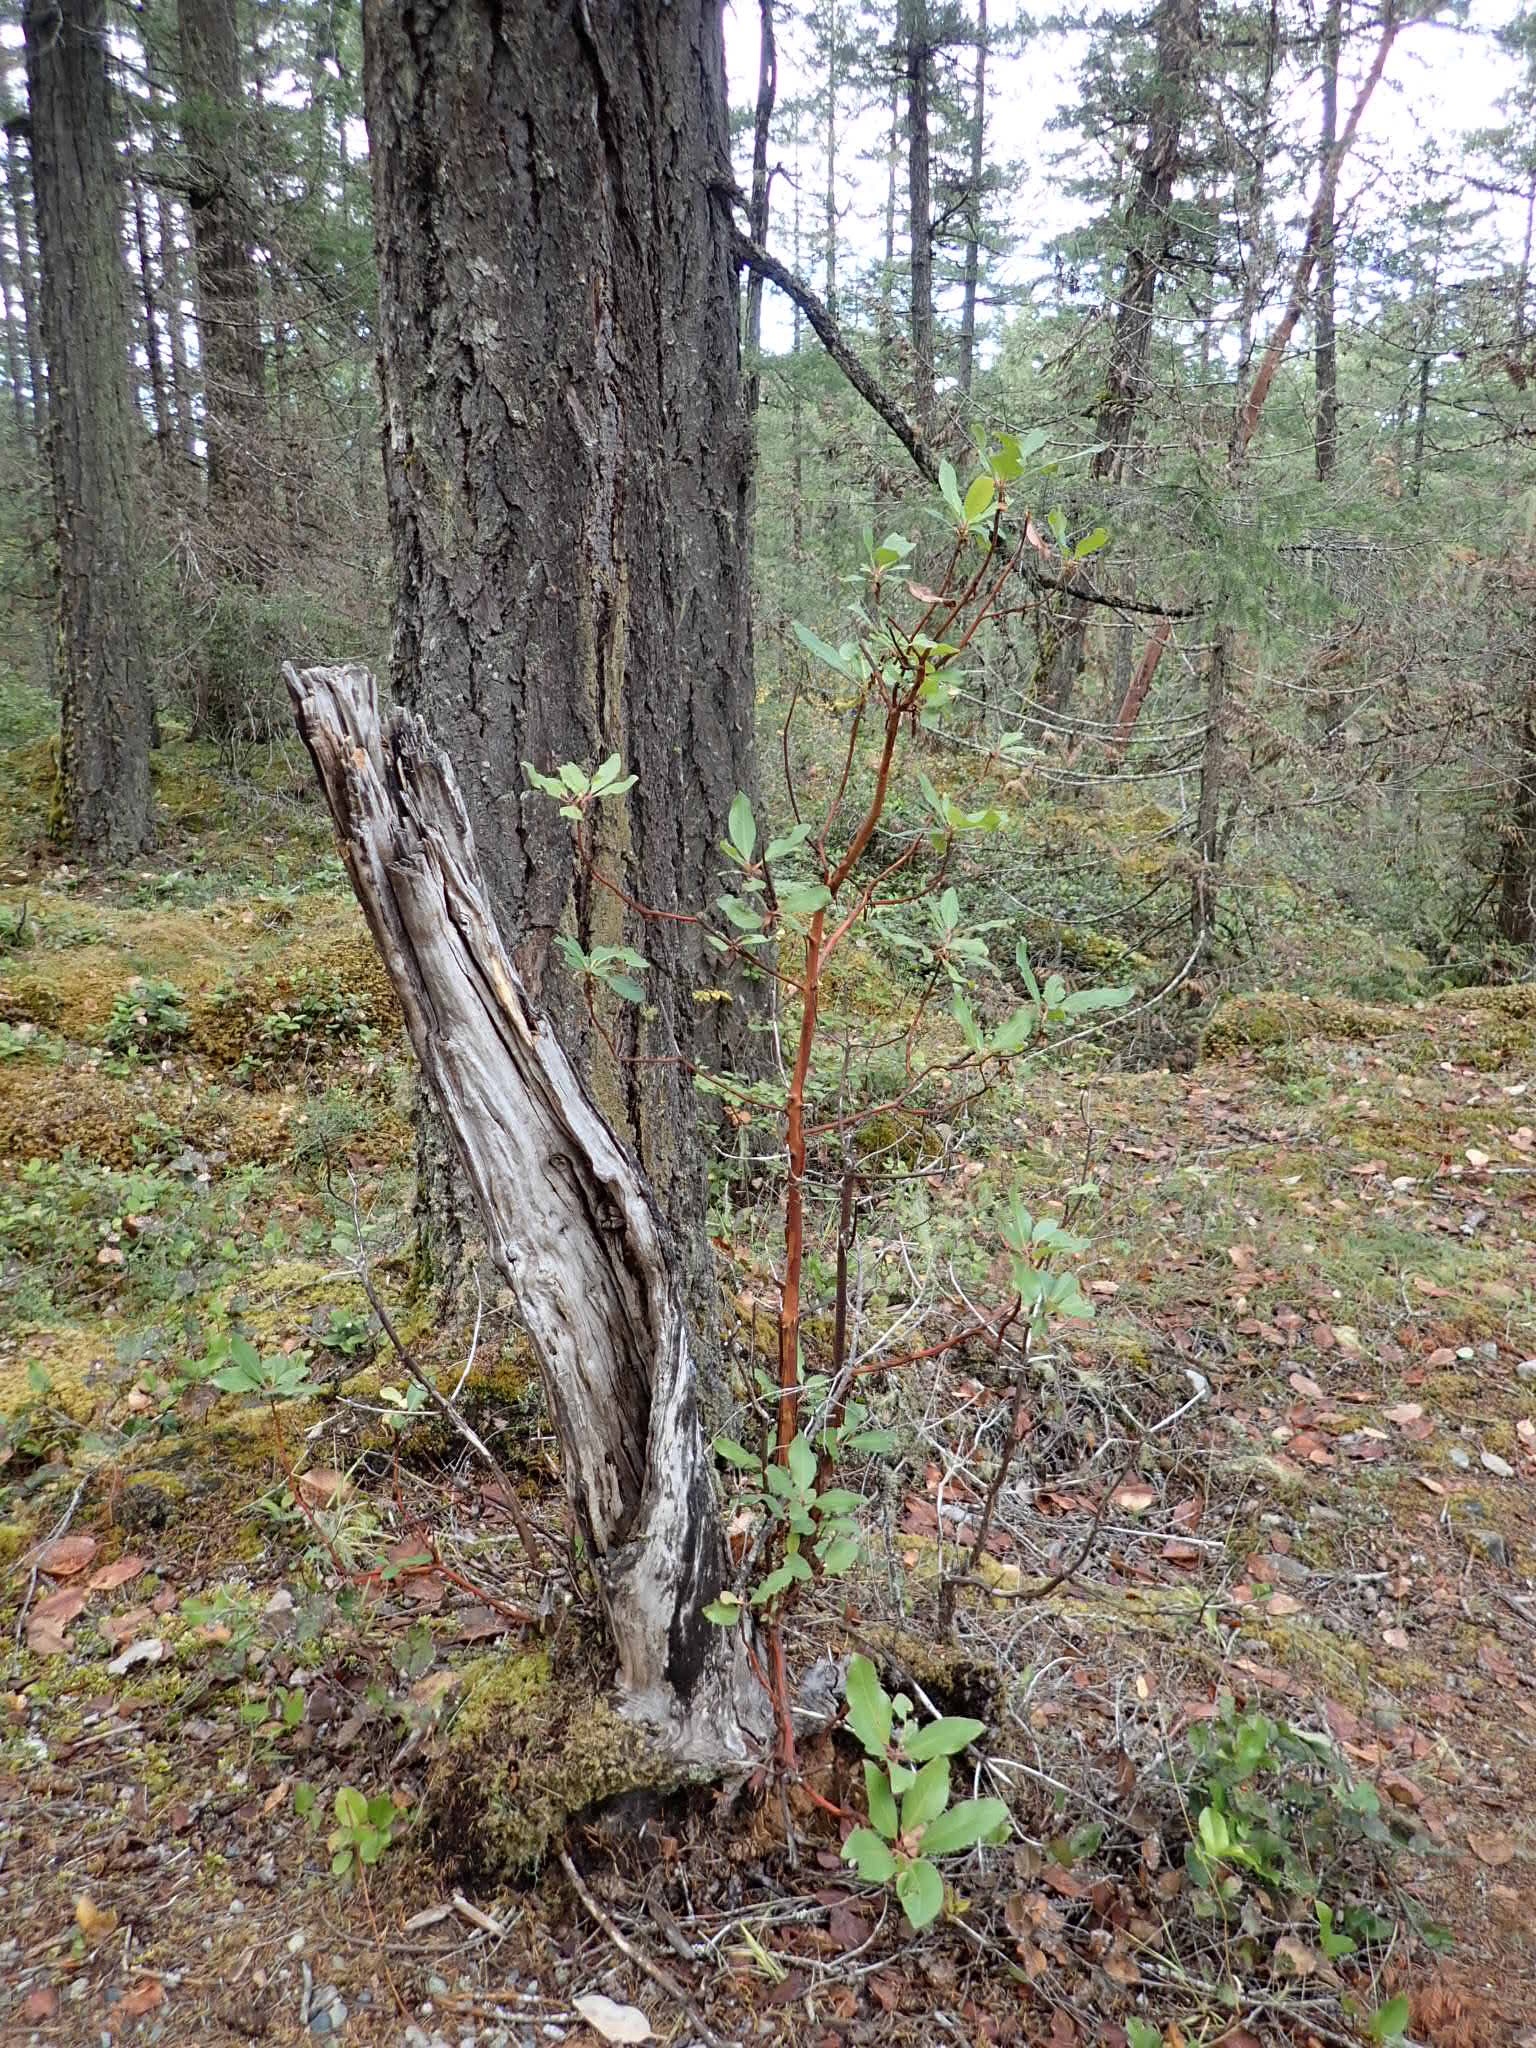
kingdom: Plantae
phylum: Tracheophyta
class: Magnoliopsida
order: Ericales
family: Ericaceae
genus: Arbutus
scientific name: Arbutus menziesii
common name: Pacific madrone
